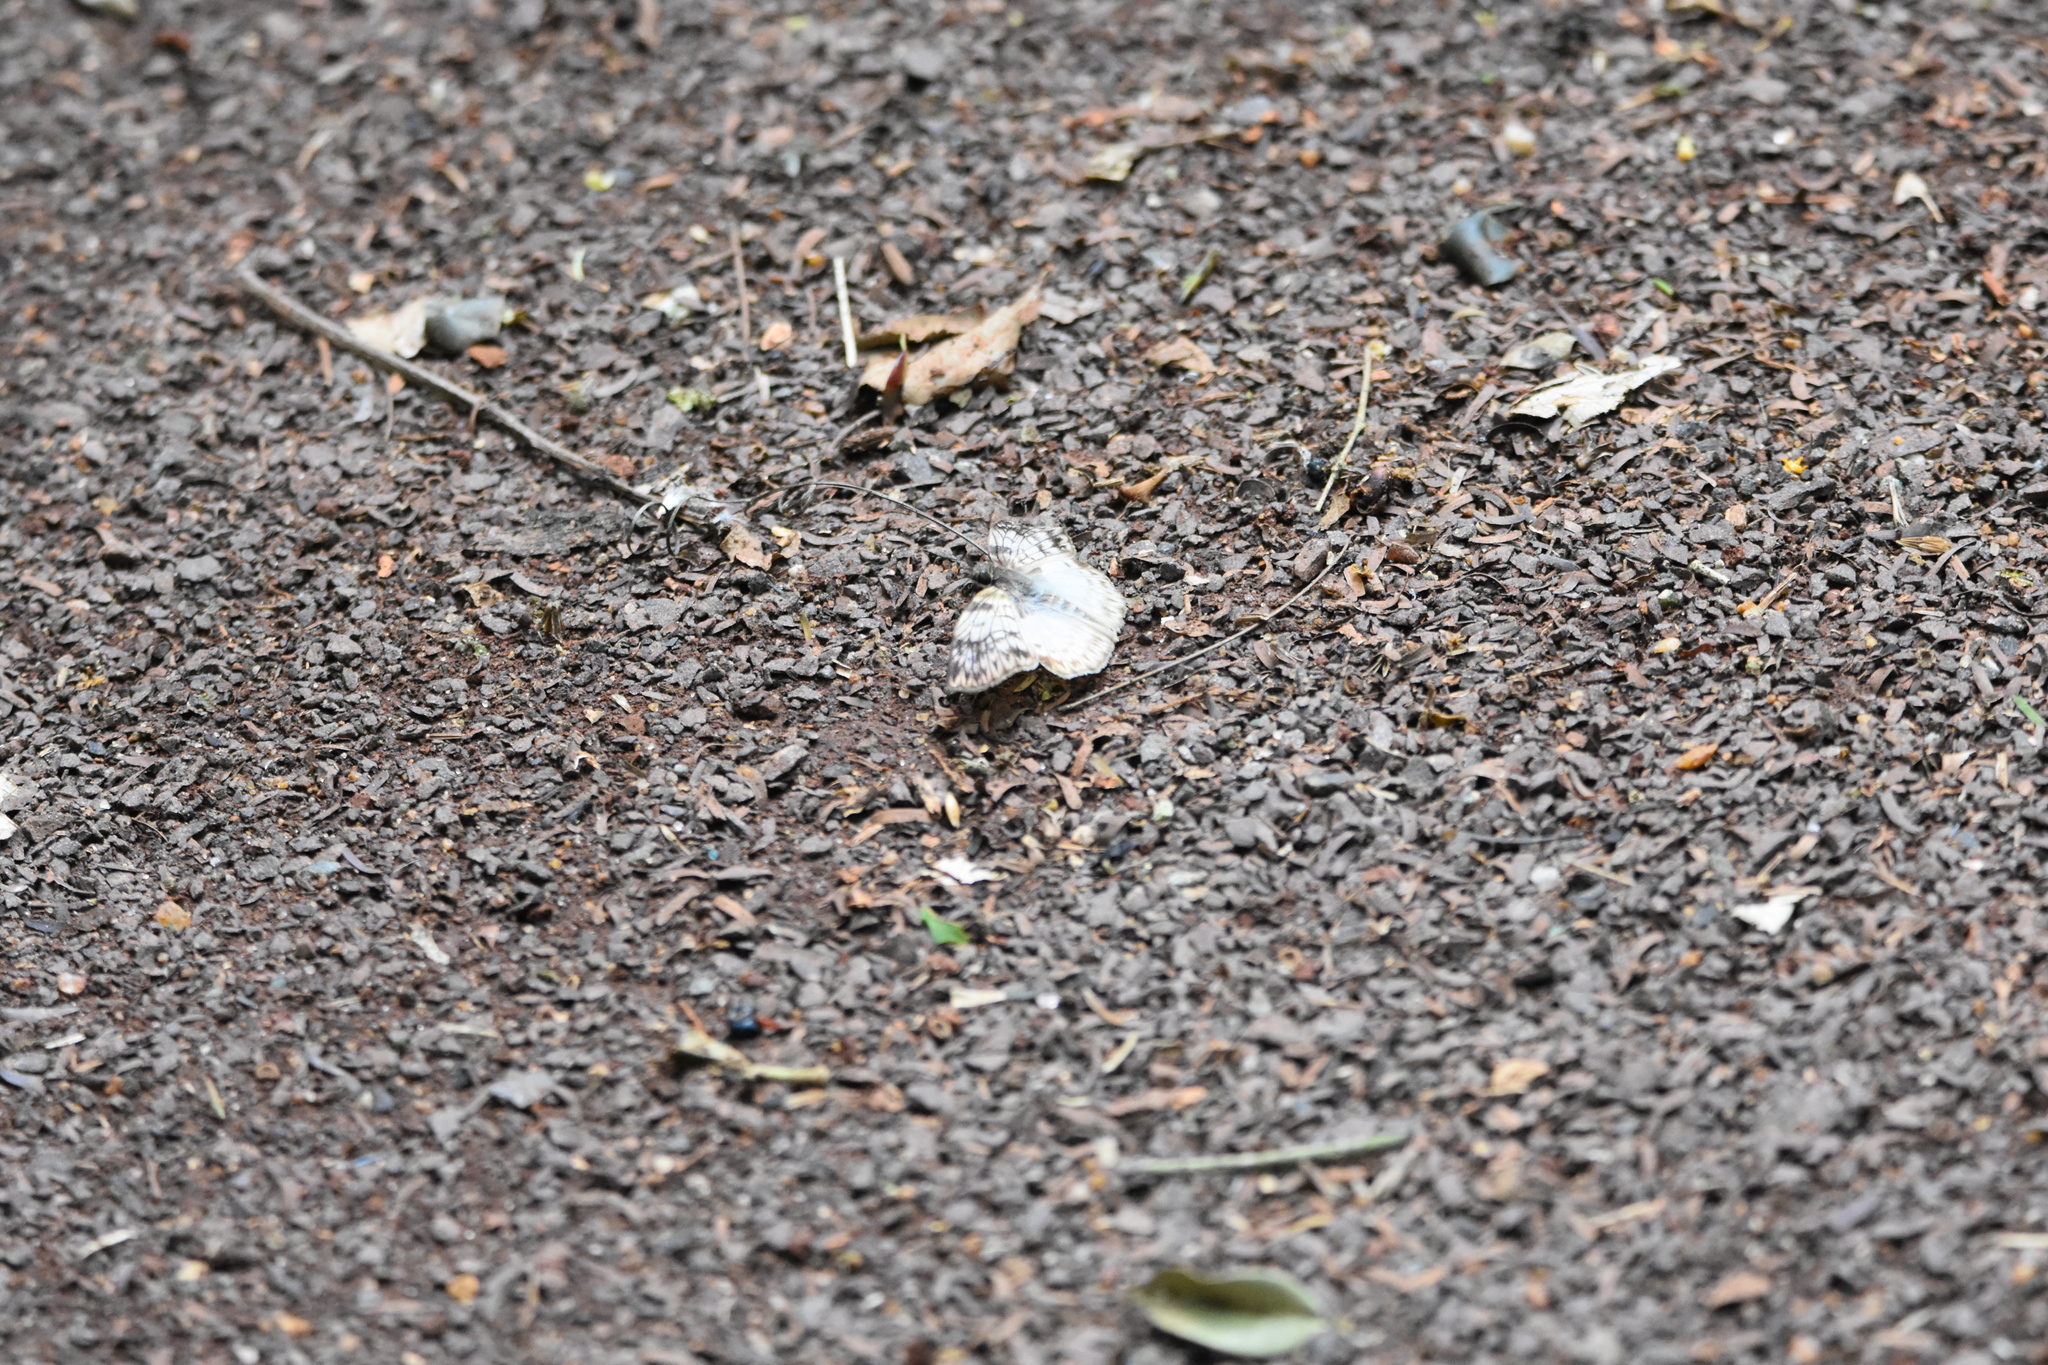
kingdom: Animalia
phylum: Arthropoda
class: Insecta
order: Lepidoptera
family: Hesperiidae
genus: Mylon
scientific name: Mylon maimon
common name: Common mylon
